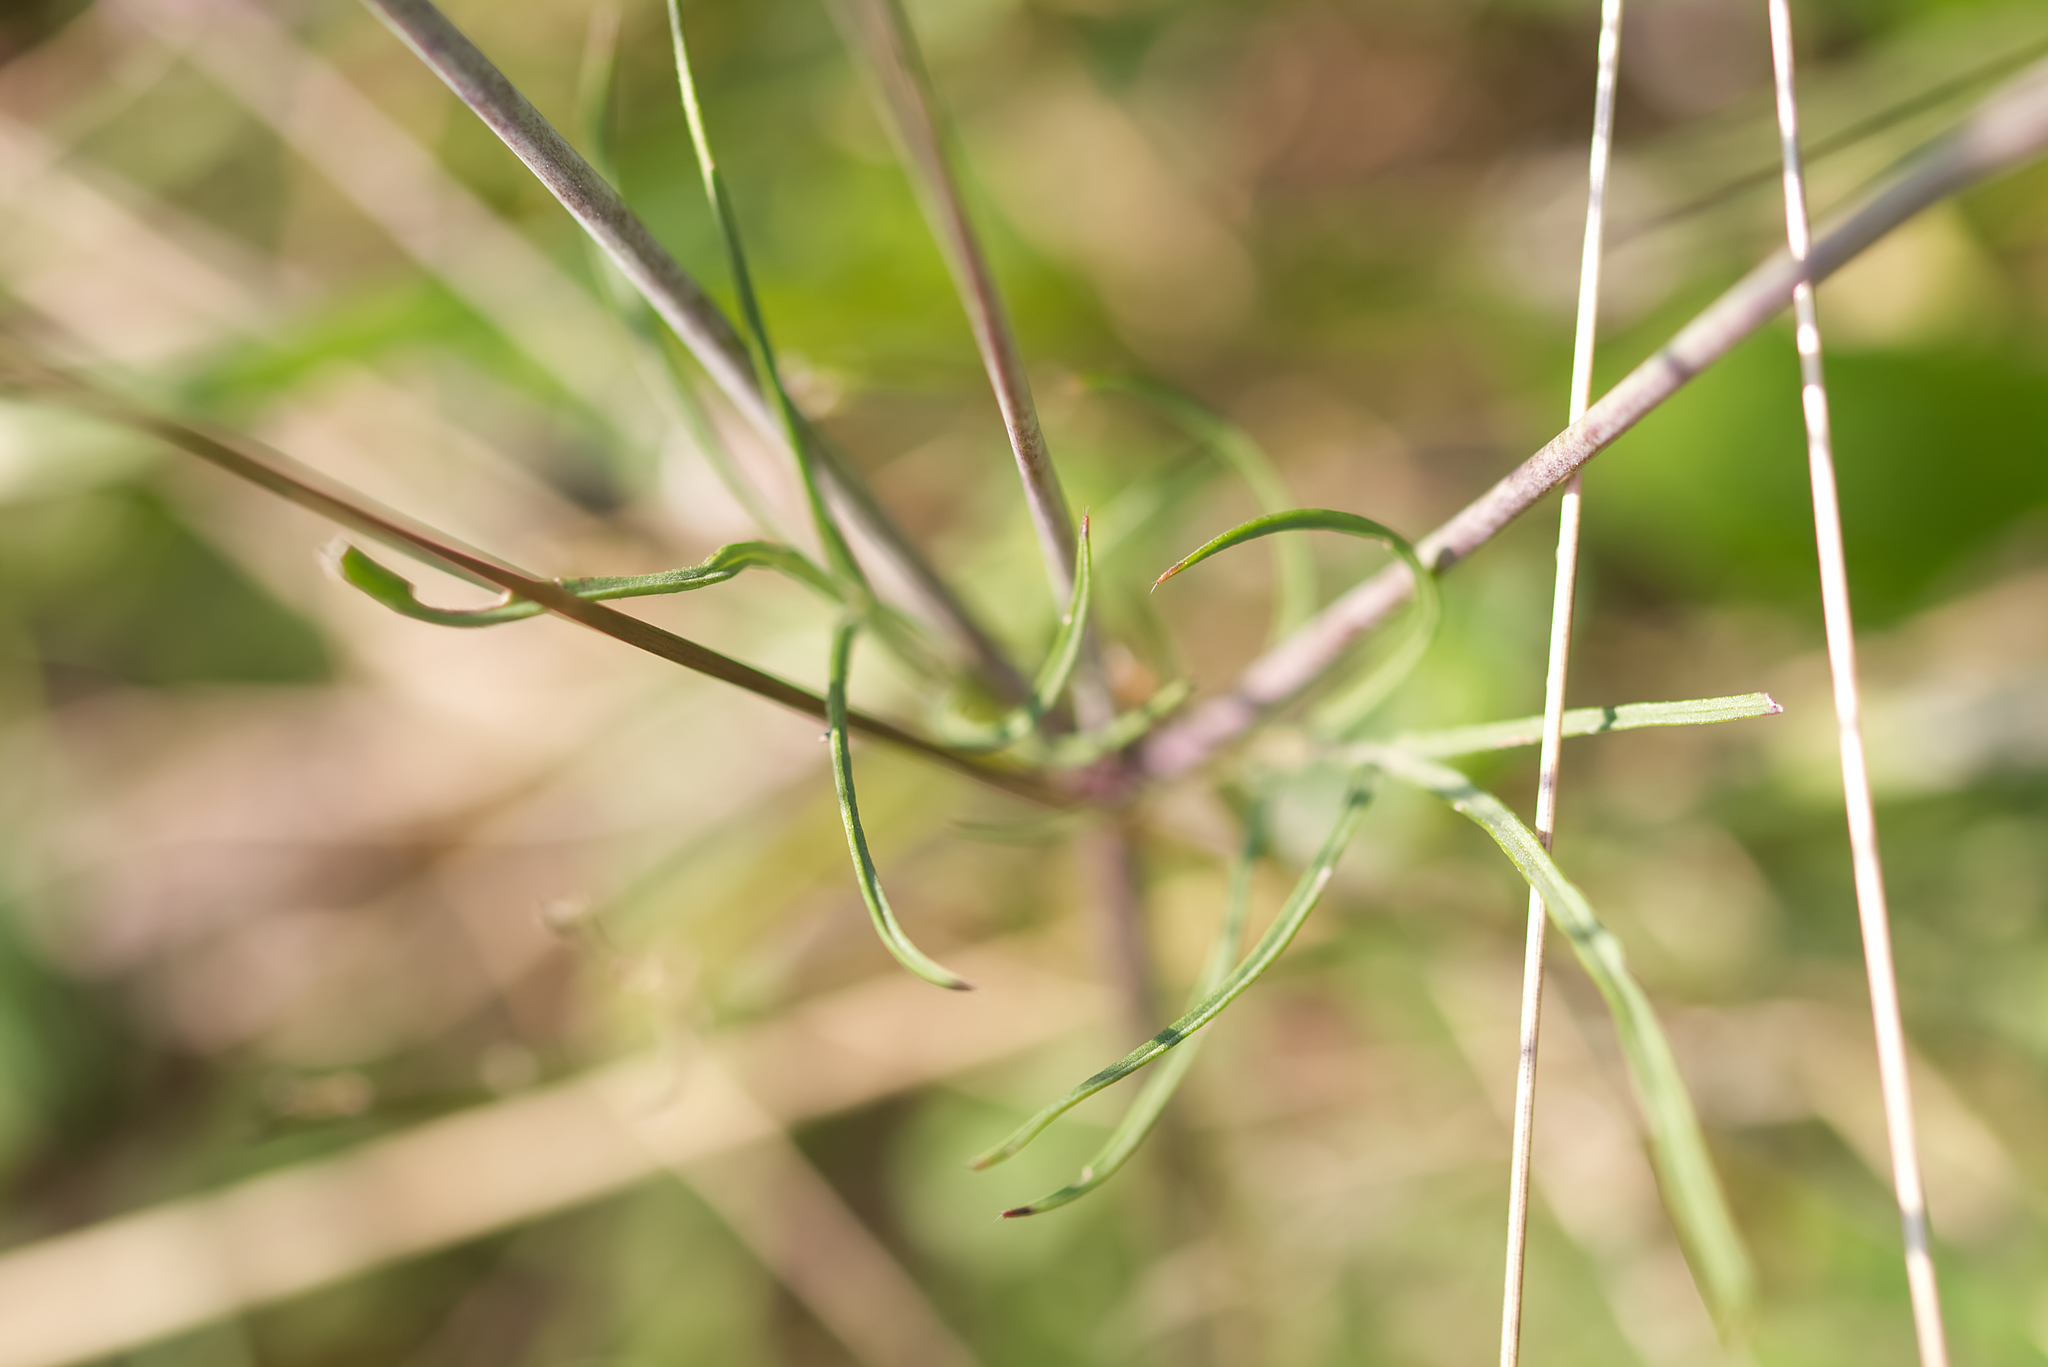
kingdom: Plantae
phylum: Tracheophyta
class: Magnoliopsida
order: Dipsacales
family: Caprifoliaceae
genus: Scabiosa
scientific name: Scabiosa triandra
